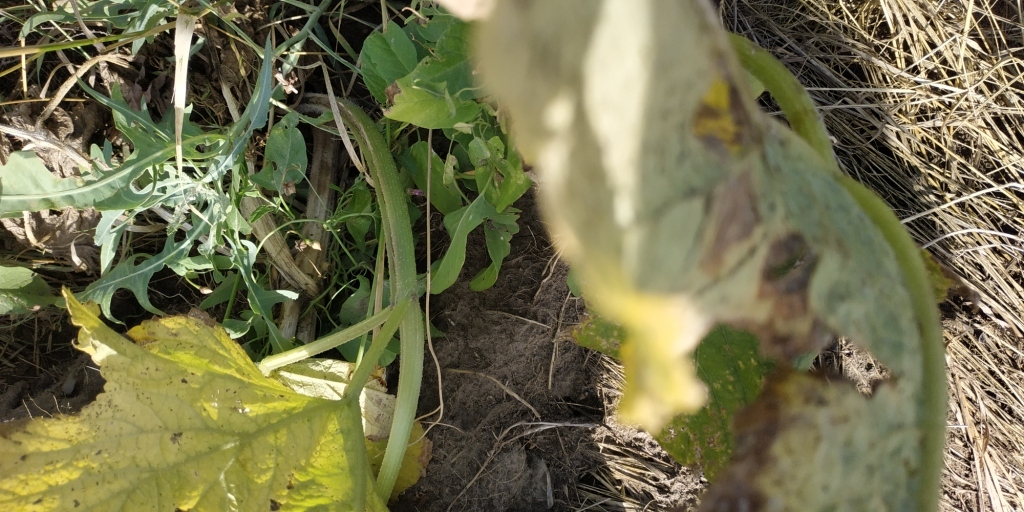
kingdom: Plantae
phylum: Tracheophyta
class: Magnoliopsida
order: Apiales
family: Apiaceae
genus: Heracleum
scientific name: Heracleum sphondylium
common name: Hogweed
